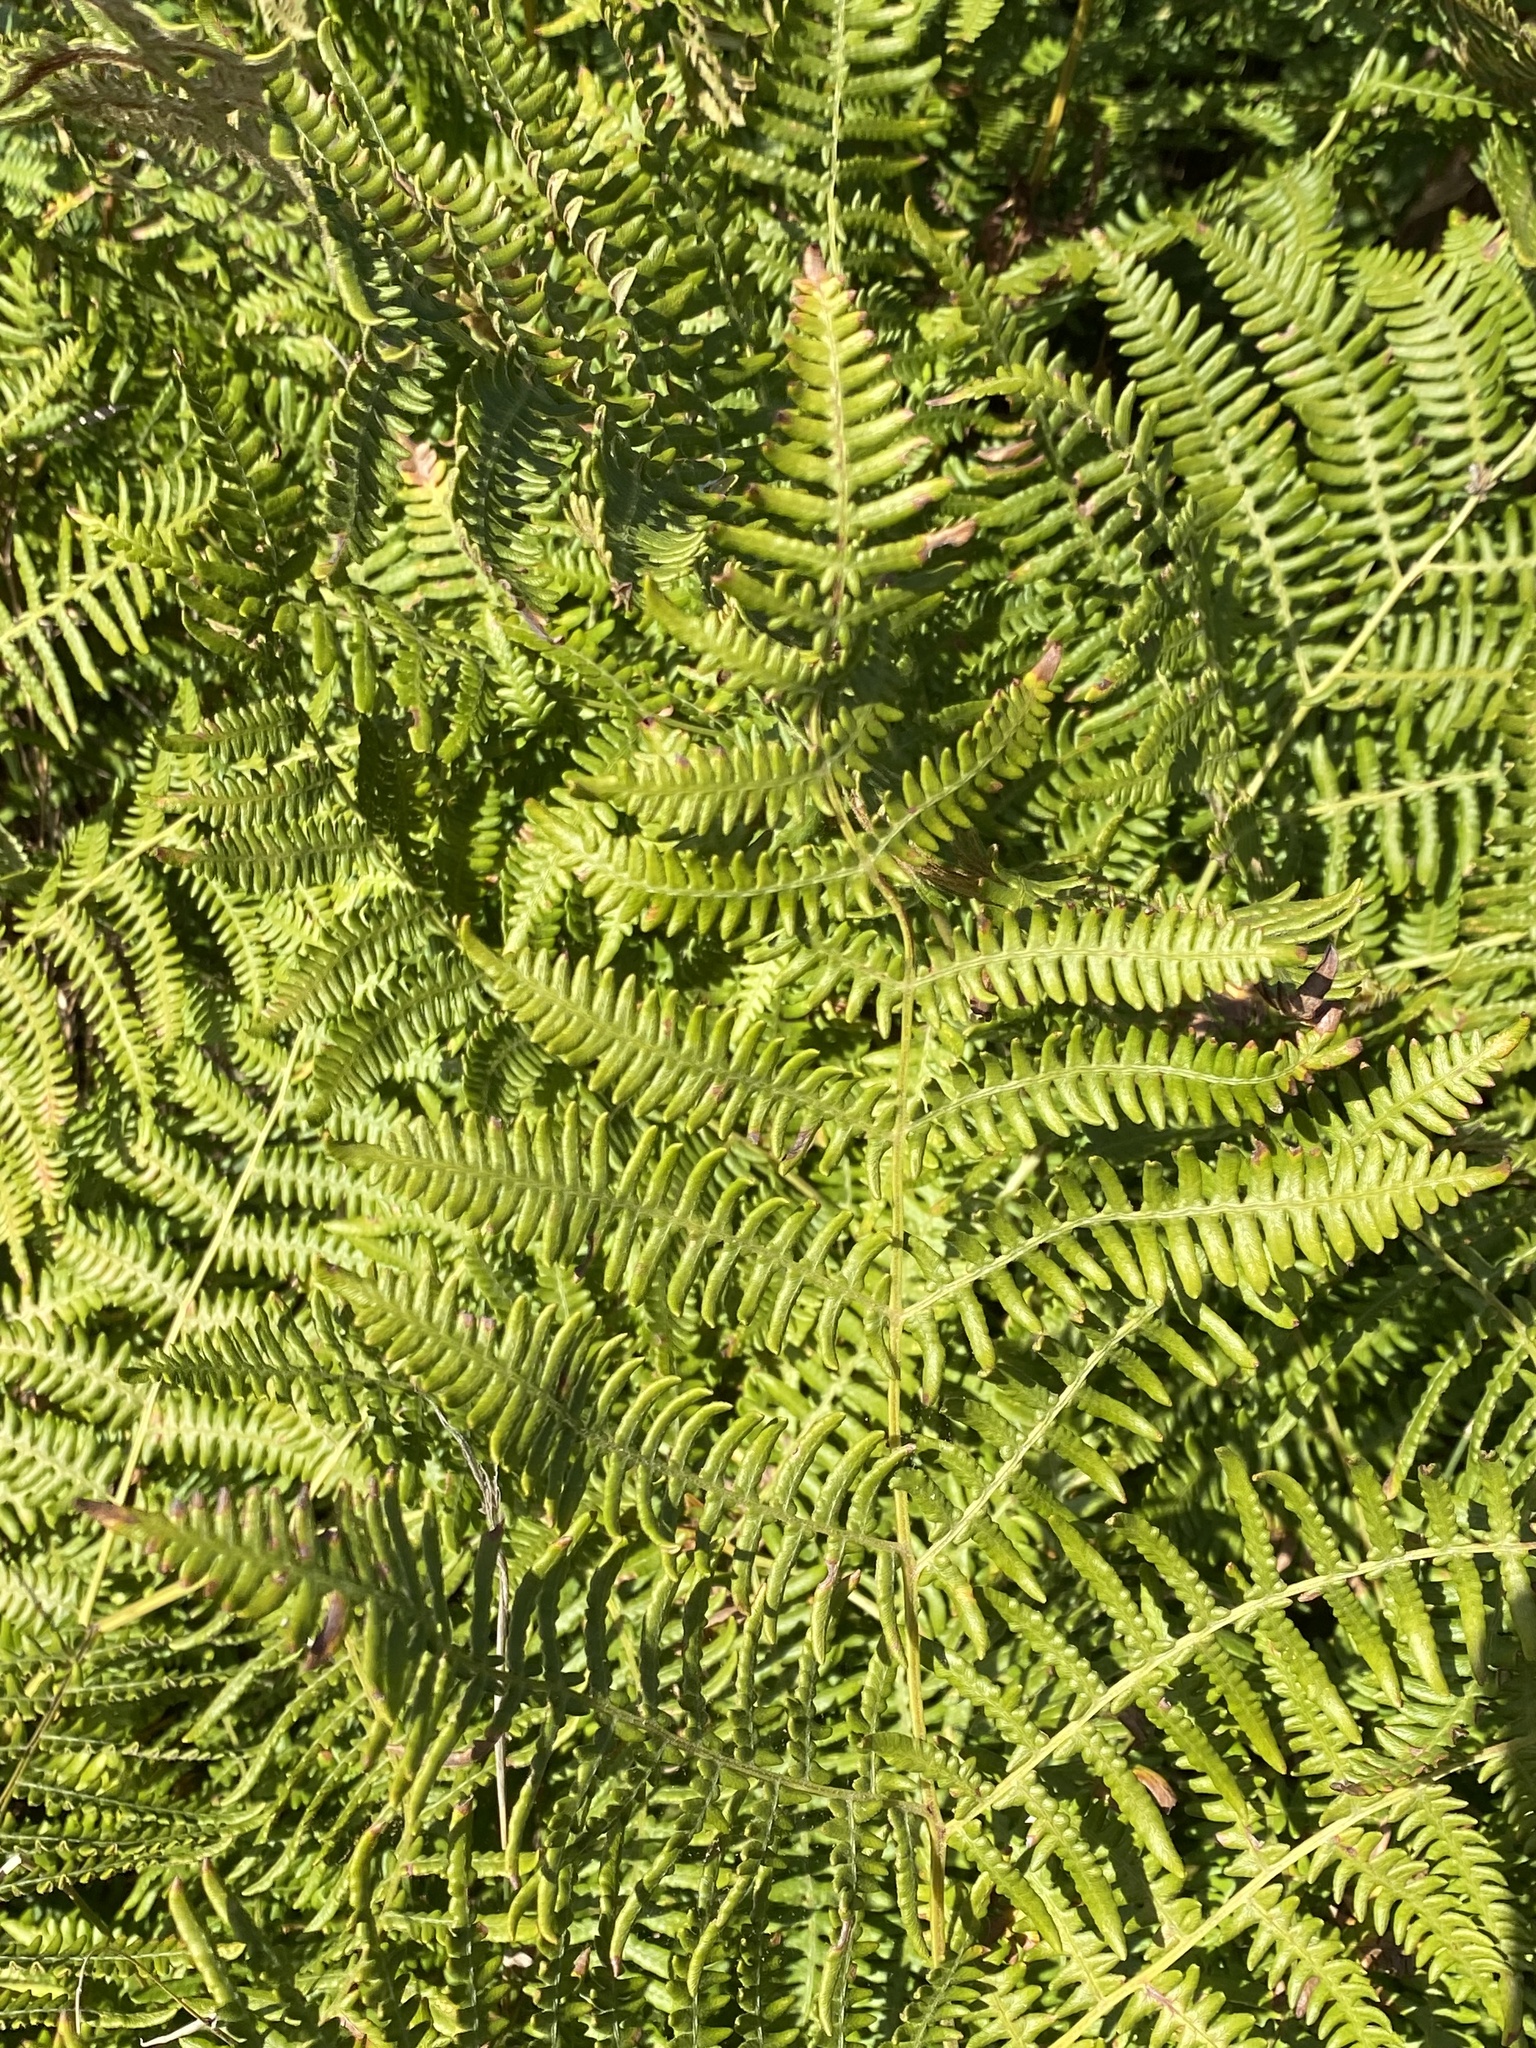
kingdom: Plantae
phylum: Tracheophyta
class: Polypodiopsida
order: Polypodiales
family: Dennstaedtiaceae
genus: Pteridium
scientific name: Pteridium aquilinum
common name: Bracken
